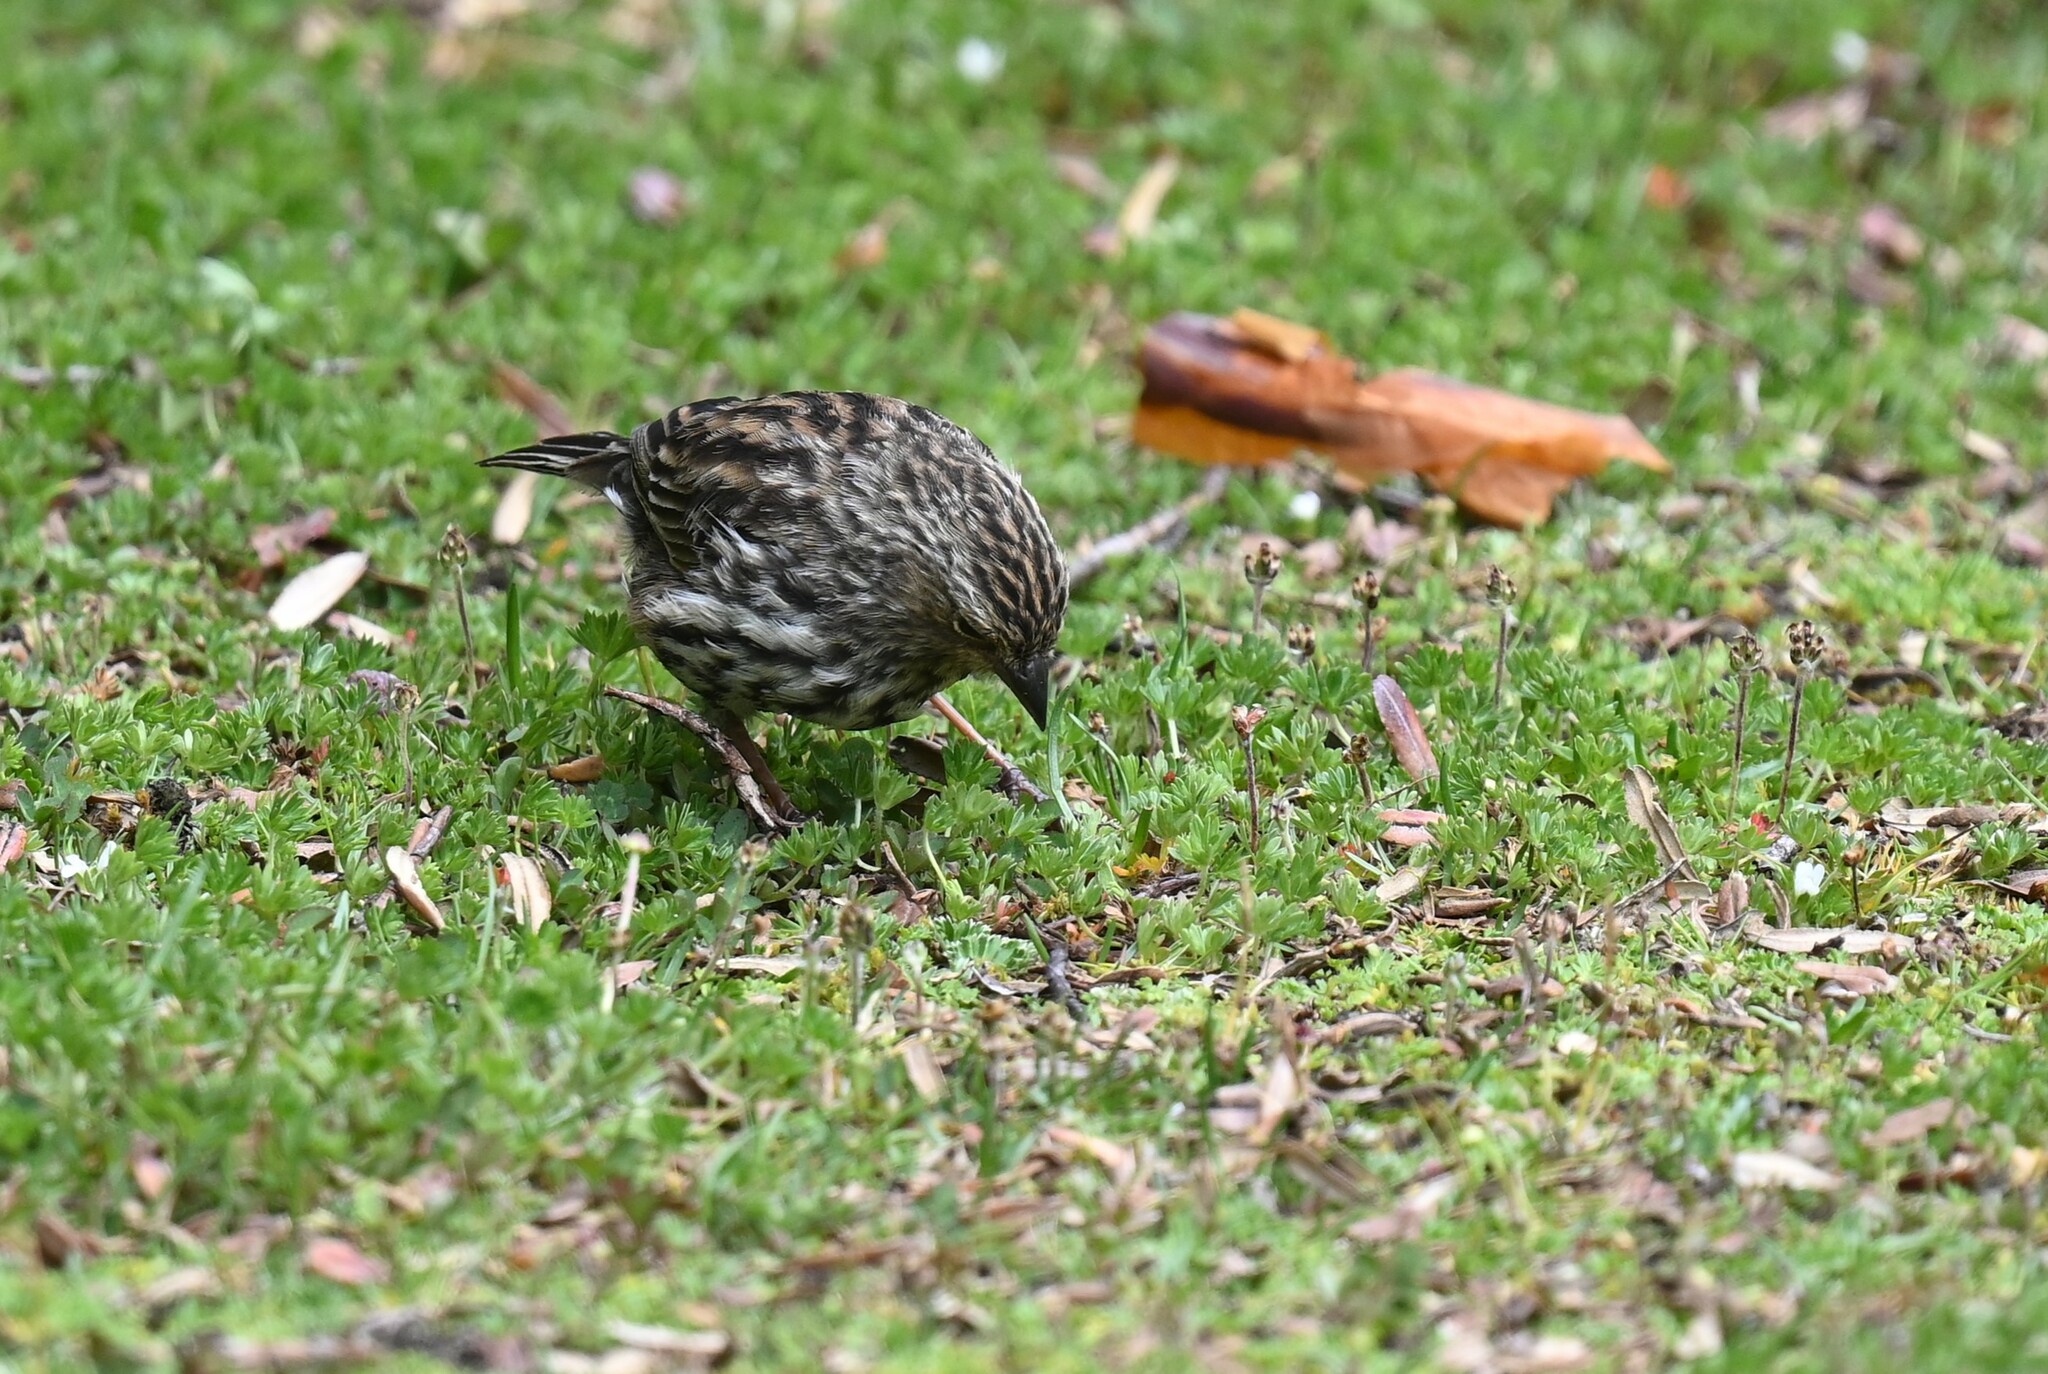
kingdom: Animalia
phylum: Chordata
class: Aves
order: Passeriformes
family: Thraupidae
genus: Geospizopsis
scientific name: Geospizopsis unicolor
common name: Plumbeous sierra-finch
